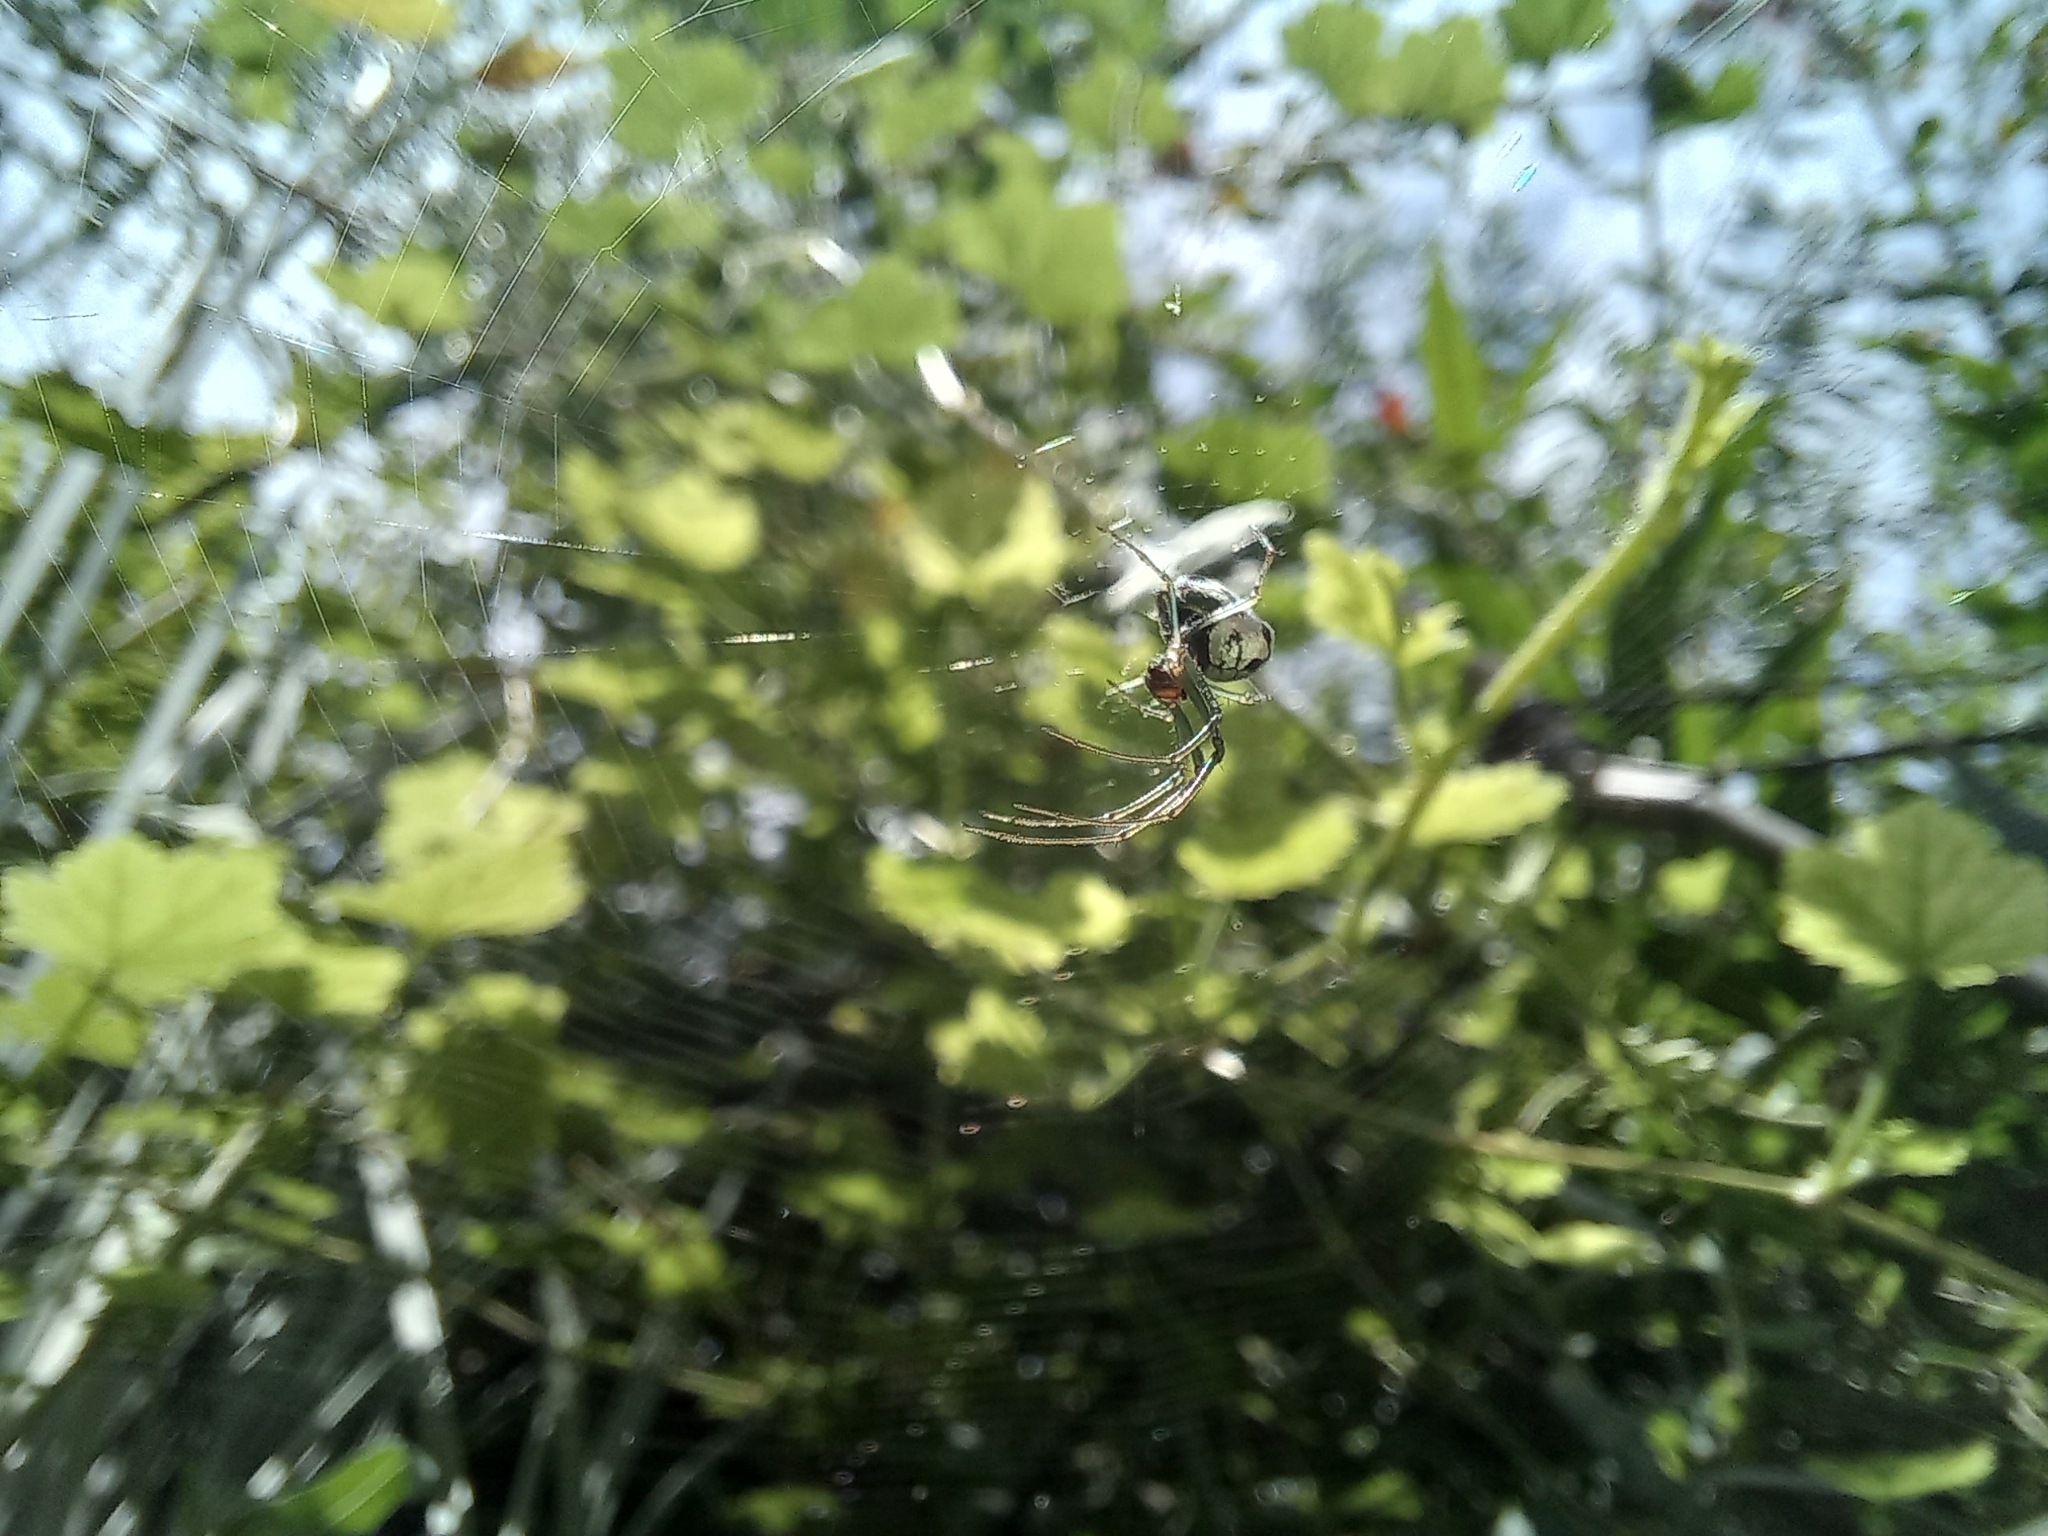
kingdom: Animalia
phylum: Arthropoda
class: Arachnida
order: Araneae
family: Tetragnathidae
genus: Leucauge
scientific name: Leucauge volupis
